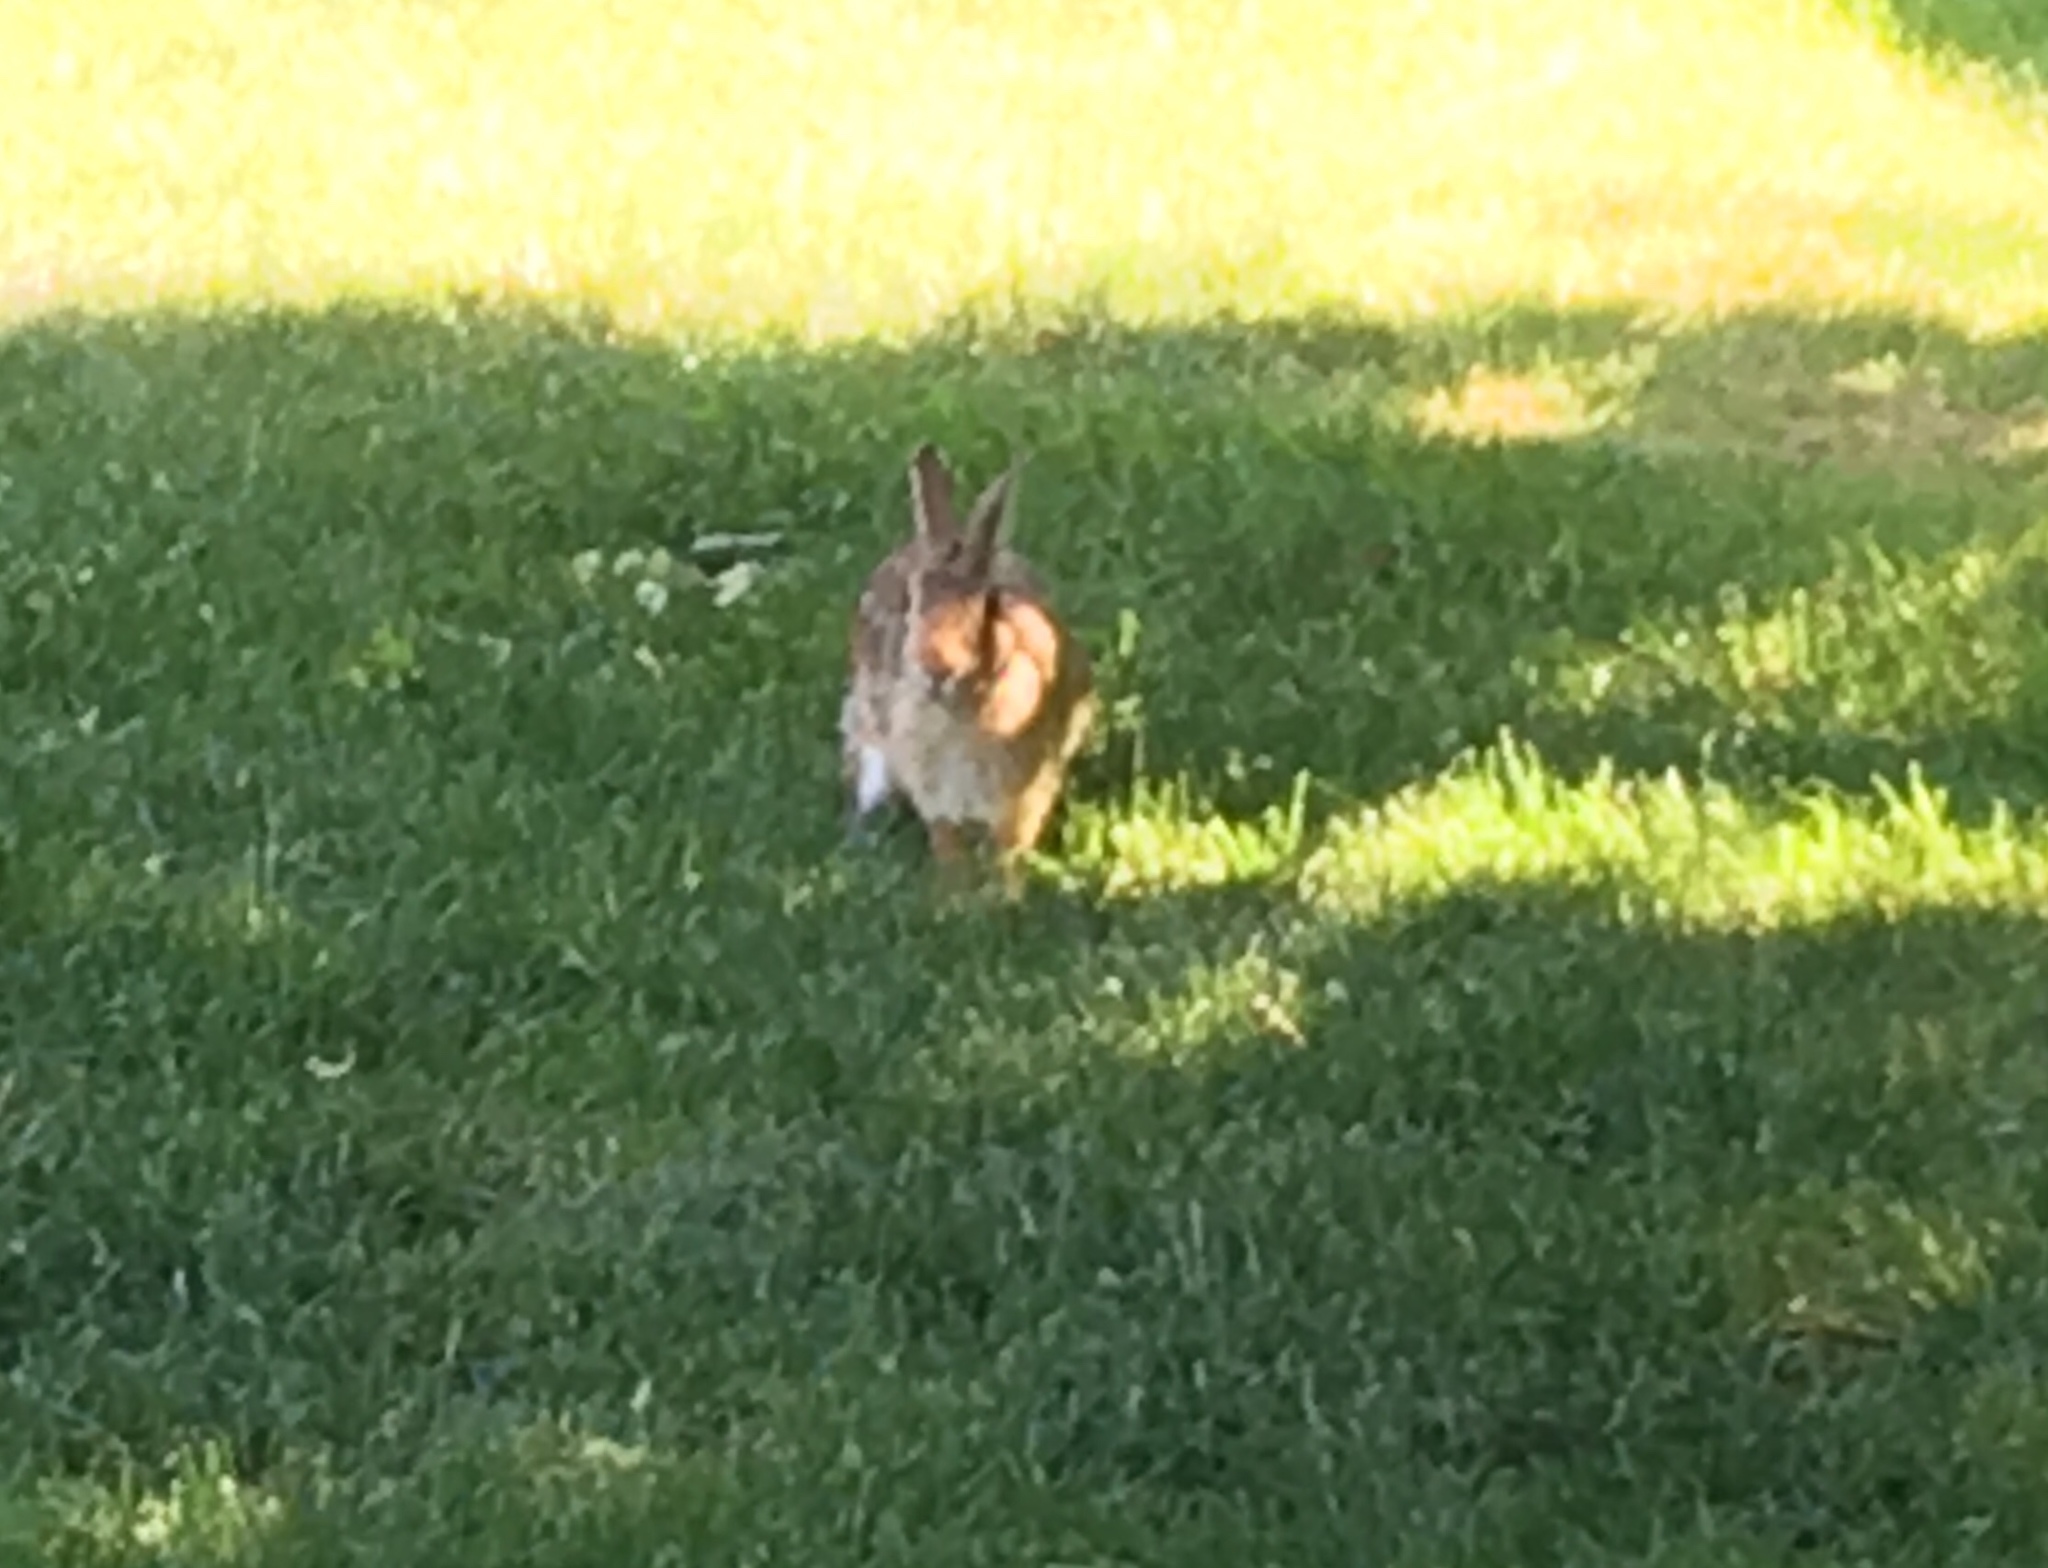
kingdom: Animalia
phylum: Chordata
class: Mammalia
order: Lagomorpha
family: Leporidae
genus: Sylvilagus
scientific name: Sylvilagus floridanus
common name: Eastern cottontail
